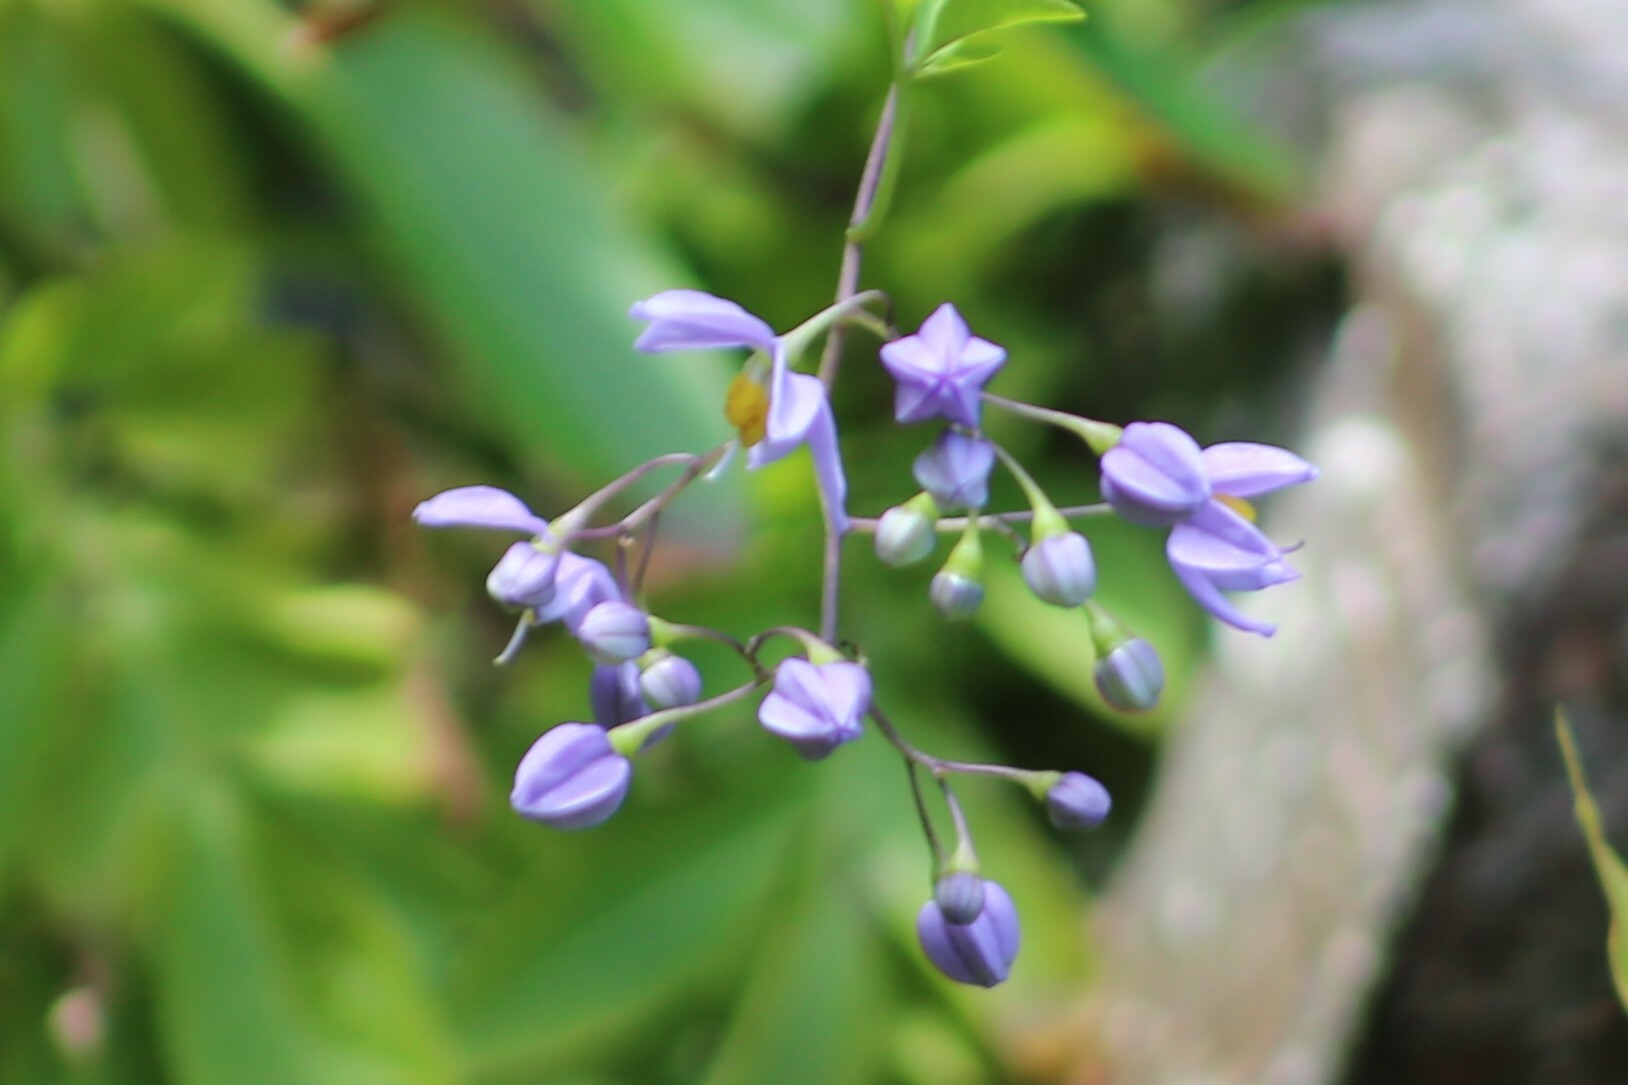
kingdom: Plantae
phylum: Tracheophyta
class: Magnoliopsida
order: Solanales
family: Solanaceae
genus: Solanum
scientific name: Solanum seaforthianum
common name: Brazilian nightshade
